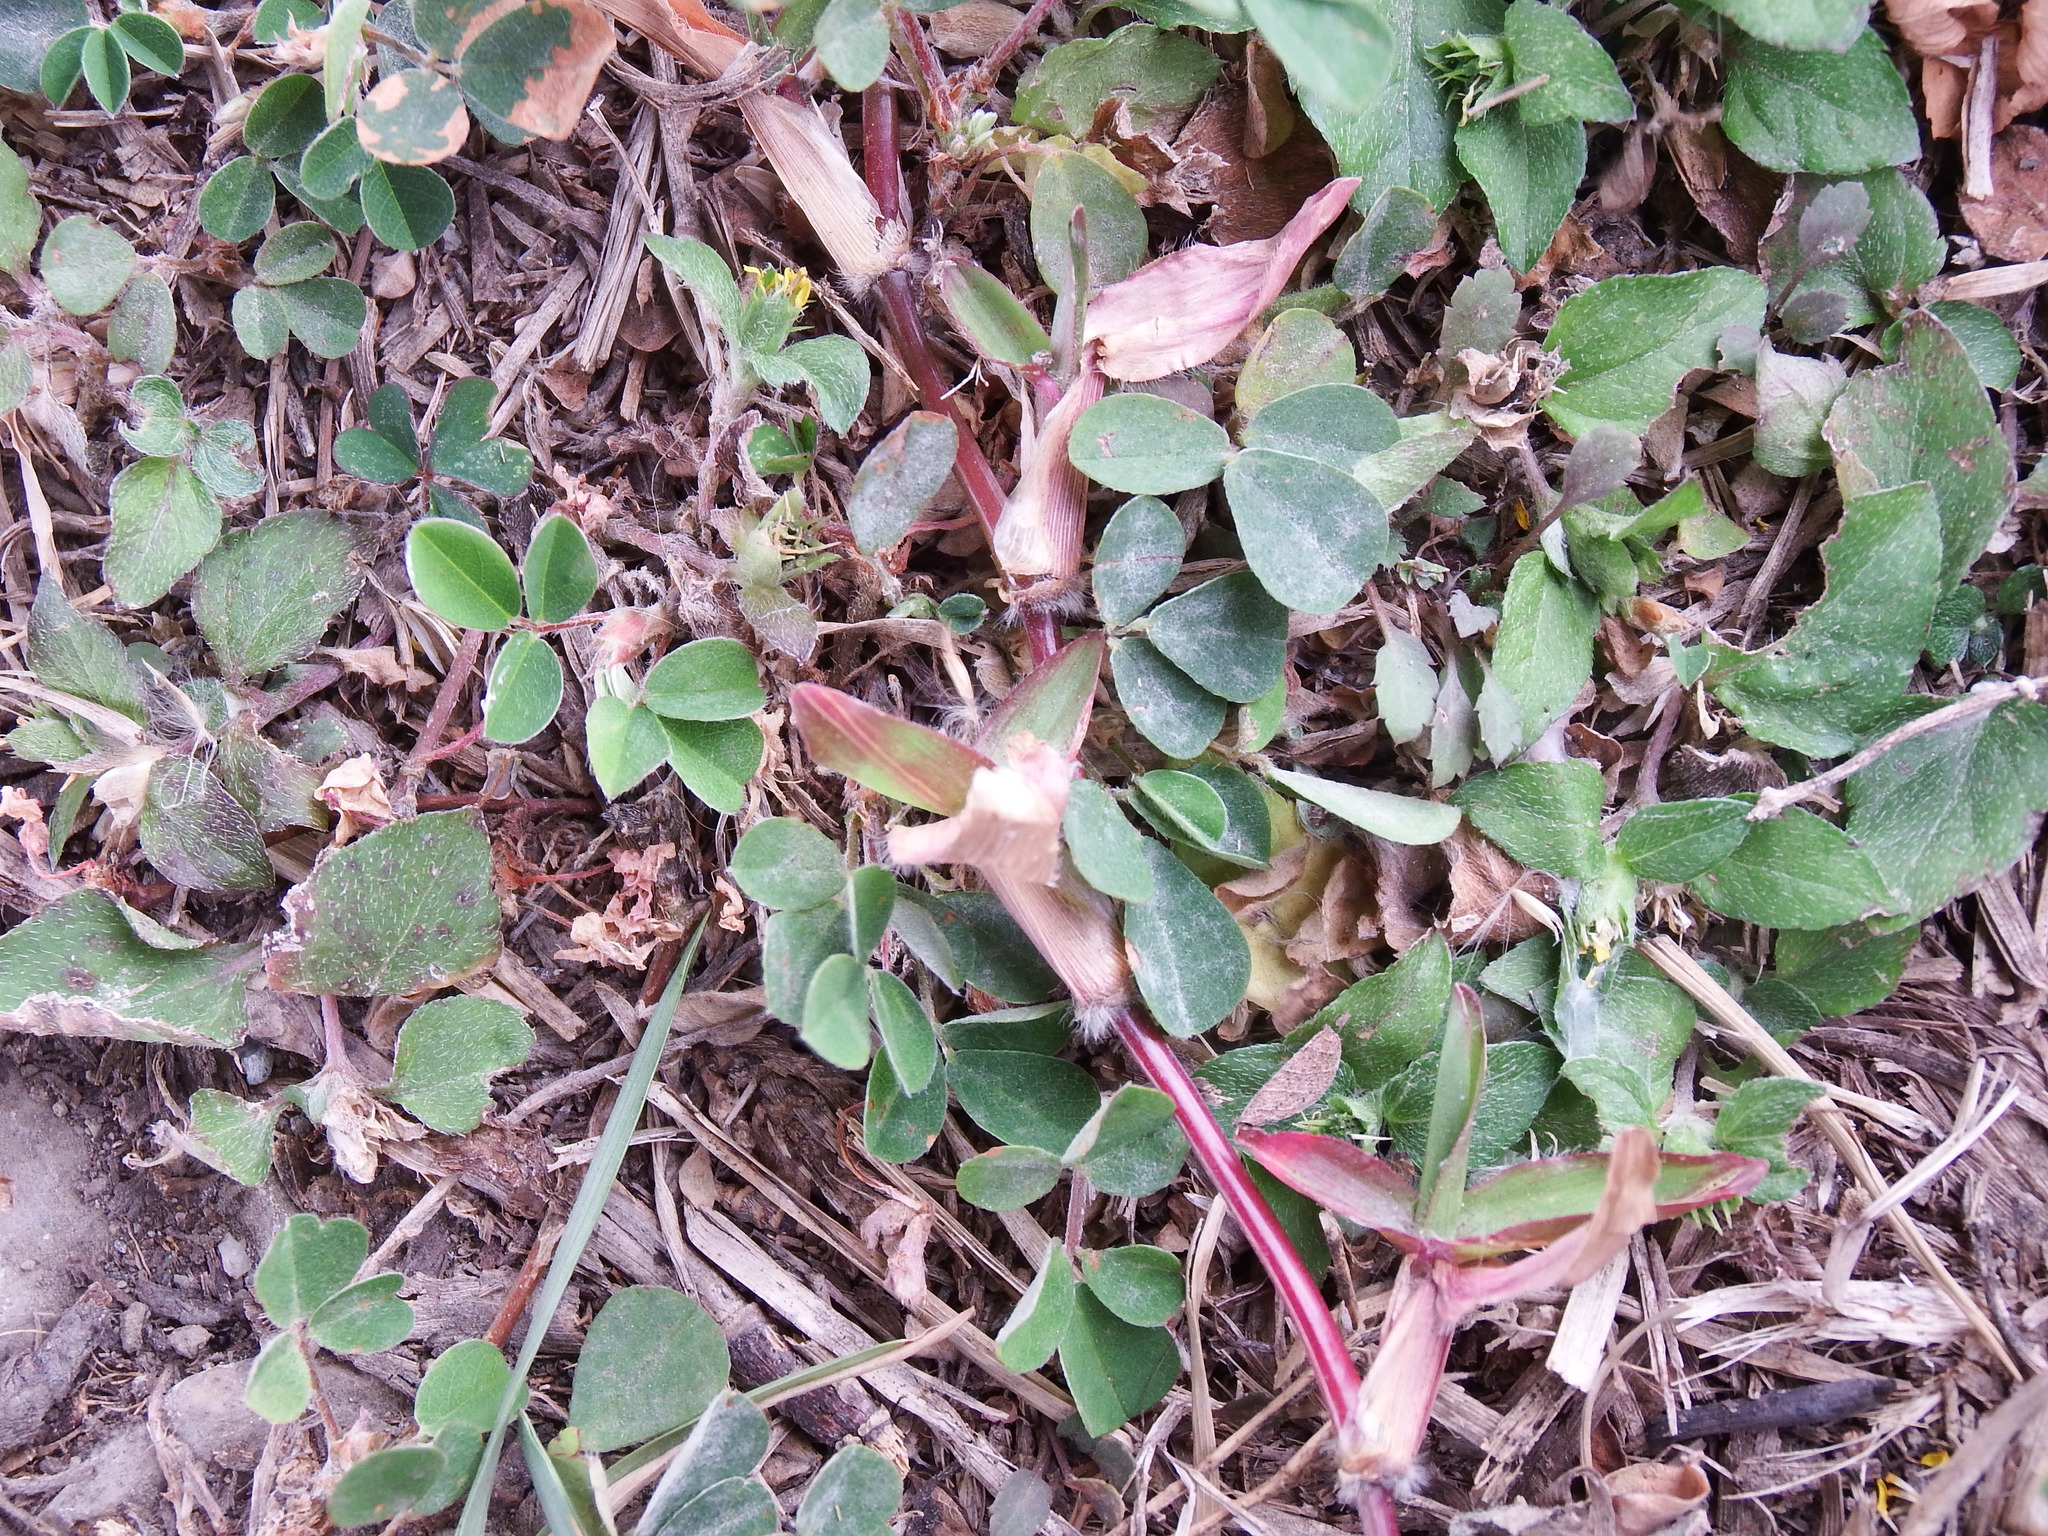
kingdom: Plantae
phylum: Tracheophyta
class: Magnoliopsida
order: Fabales
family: Fabaceae
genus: Grona
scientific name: Grona heterophylla
